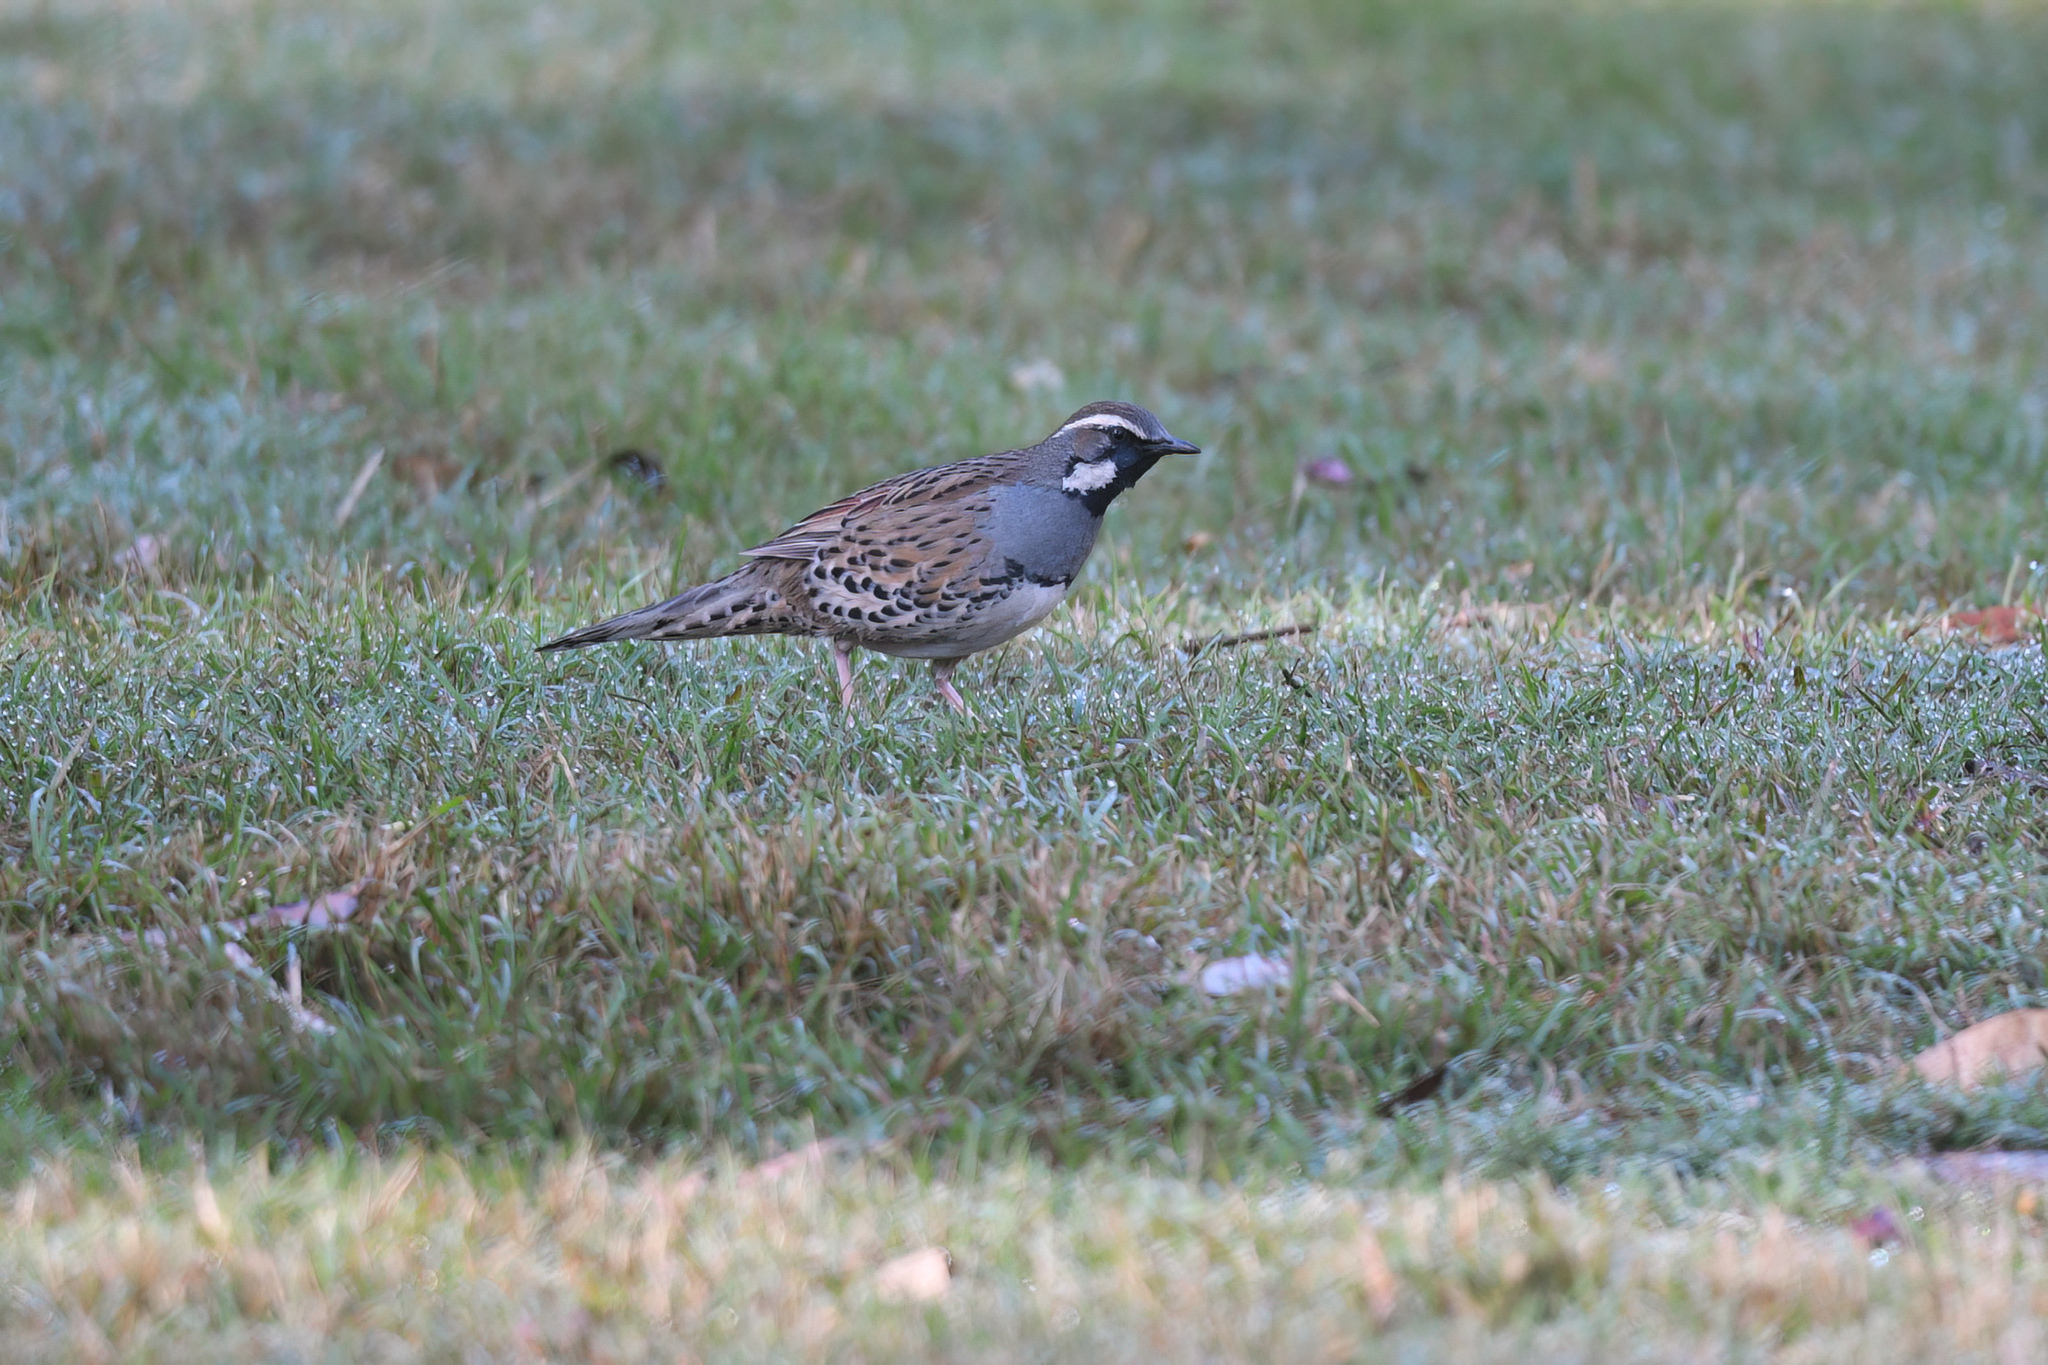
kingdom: Animalia
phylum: Chordata
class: Aves
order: Passeriformes
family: Psophodidae
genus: Cinclosoma
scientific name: Cinclosoma punctatum
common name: Spotted quail-thrush
